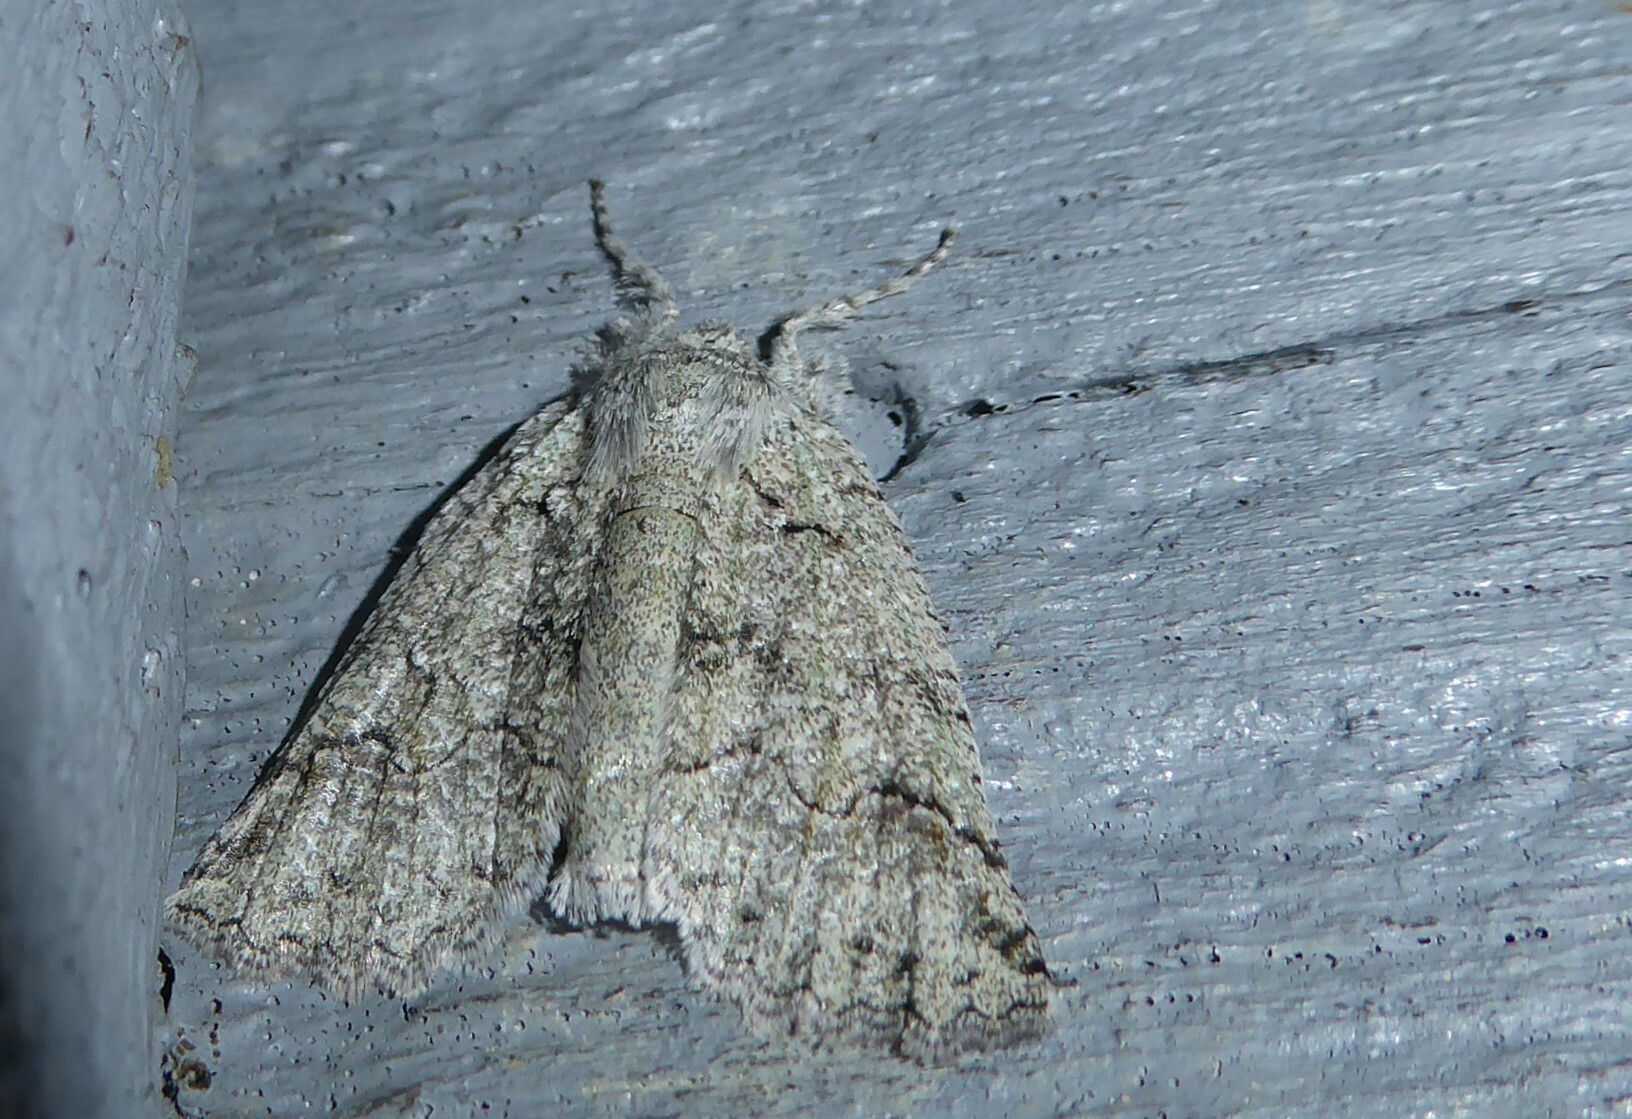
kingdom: Animalia
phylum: Arthropoda
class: Insecta
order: Lepidoptera
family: Geometridae
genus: Declana
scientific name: Declana floccosa
